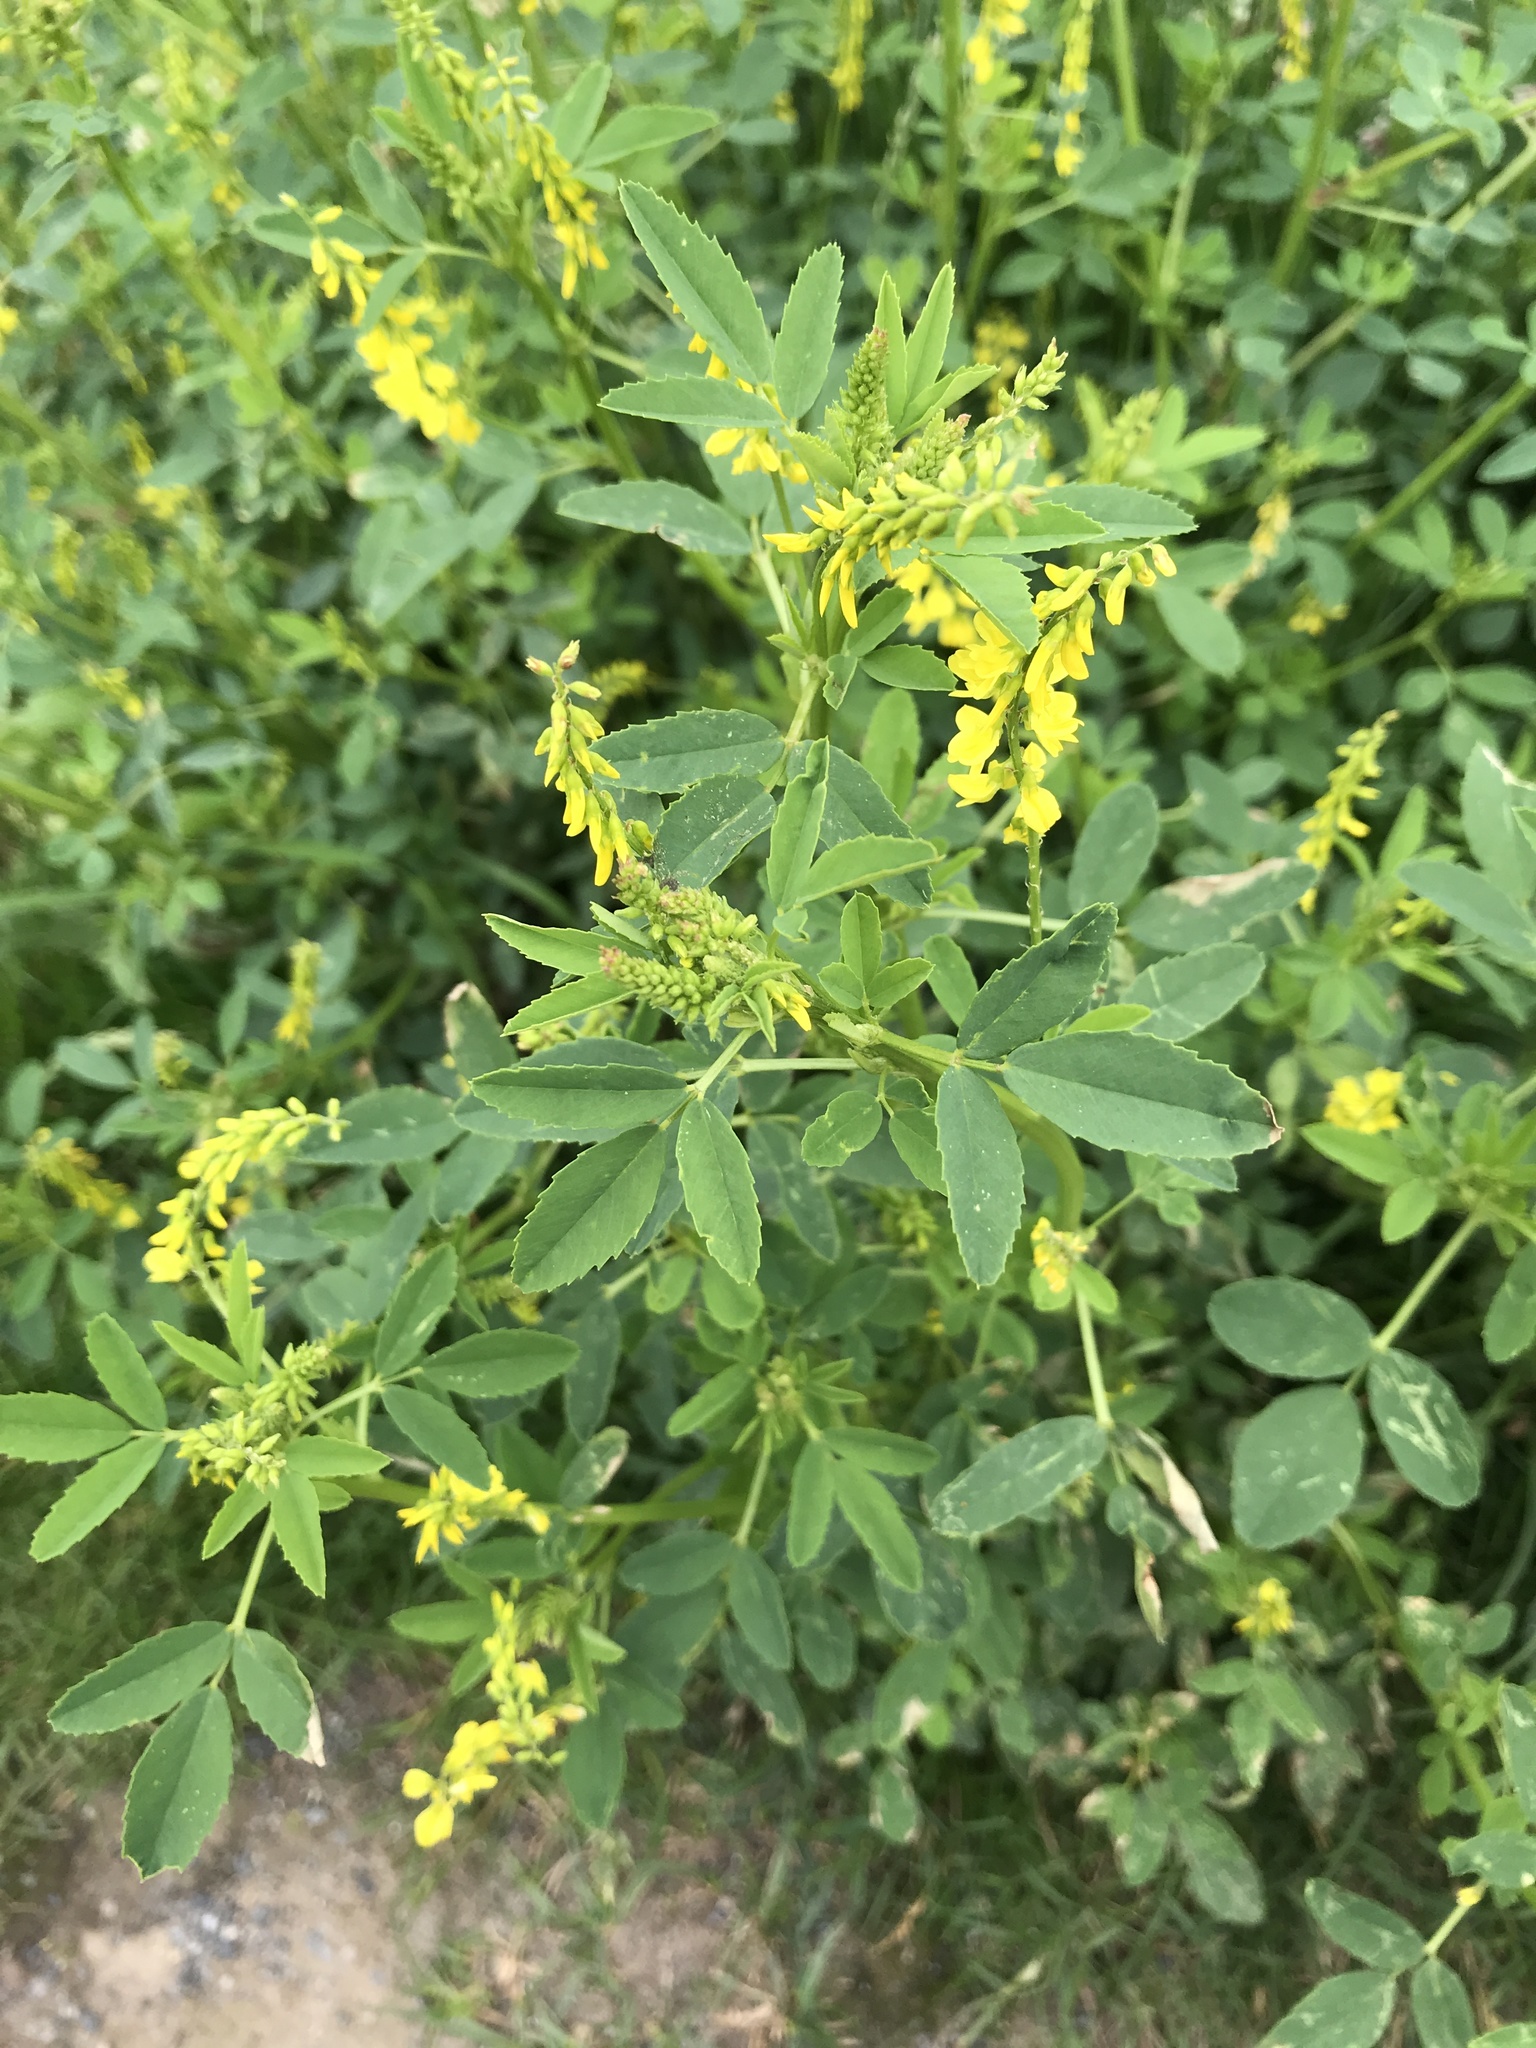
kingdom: Plantae
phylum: Tracheophyta
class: Magnoliopsida
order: Fabales
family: Fabaceae
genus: Melilotus
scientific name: Melilotus officinalis
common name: Sweetclover
